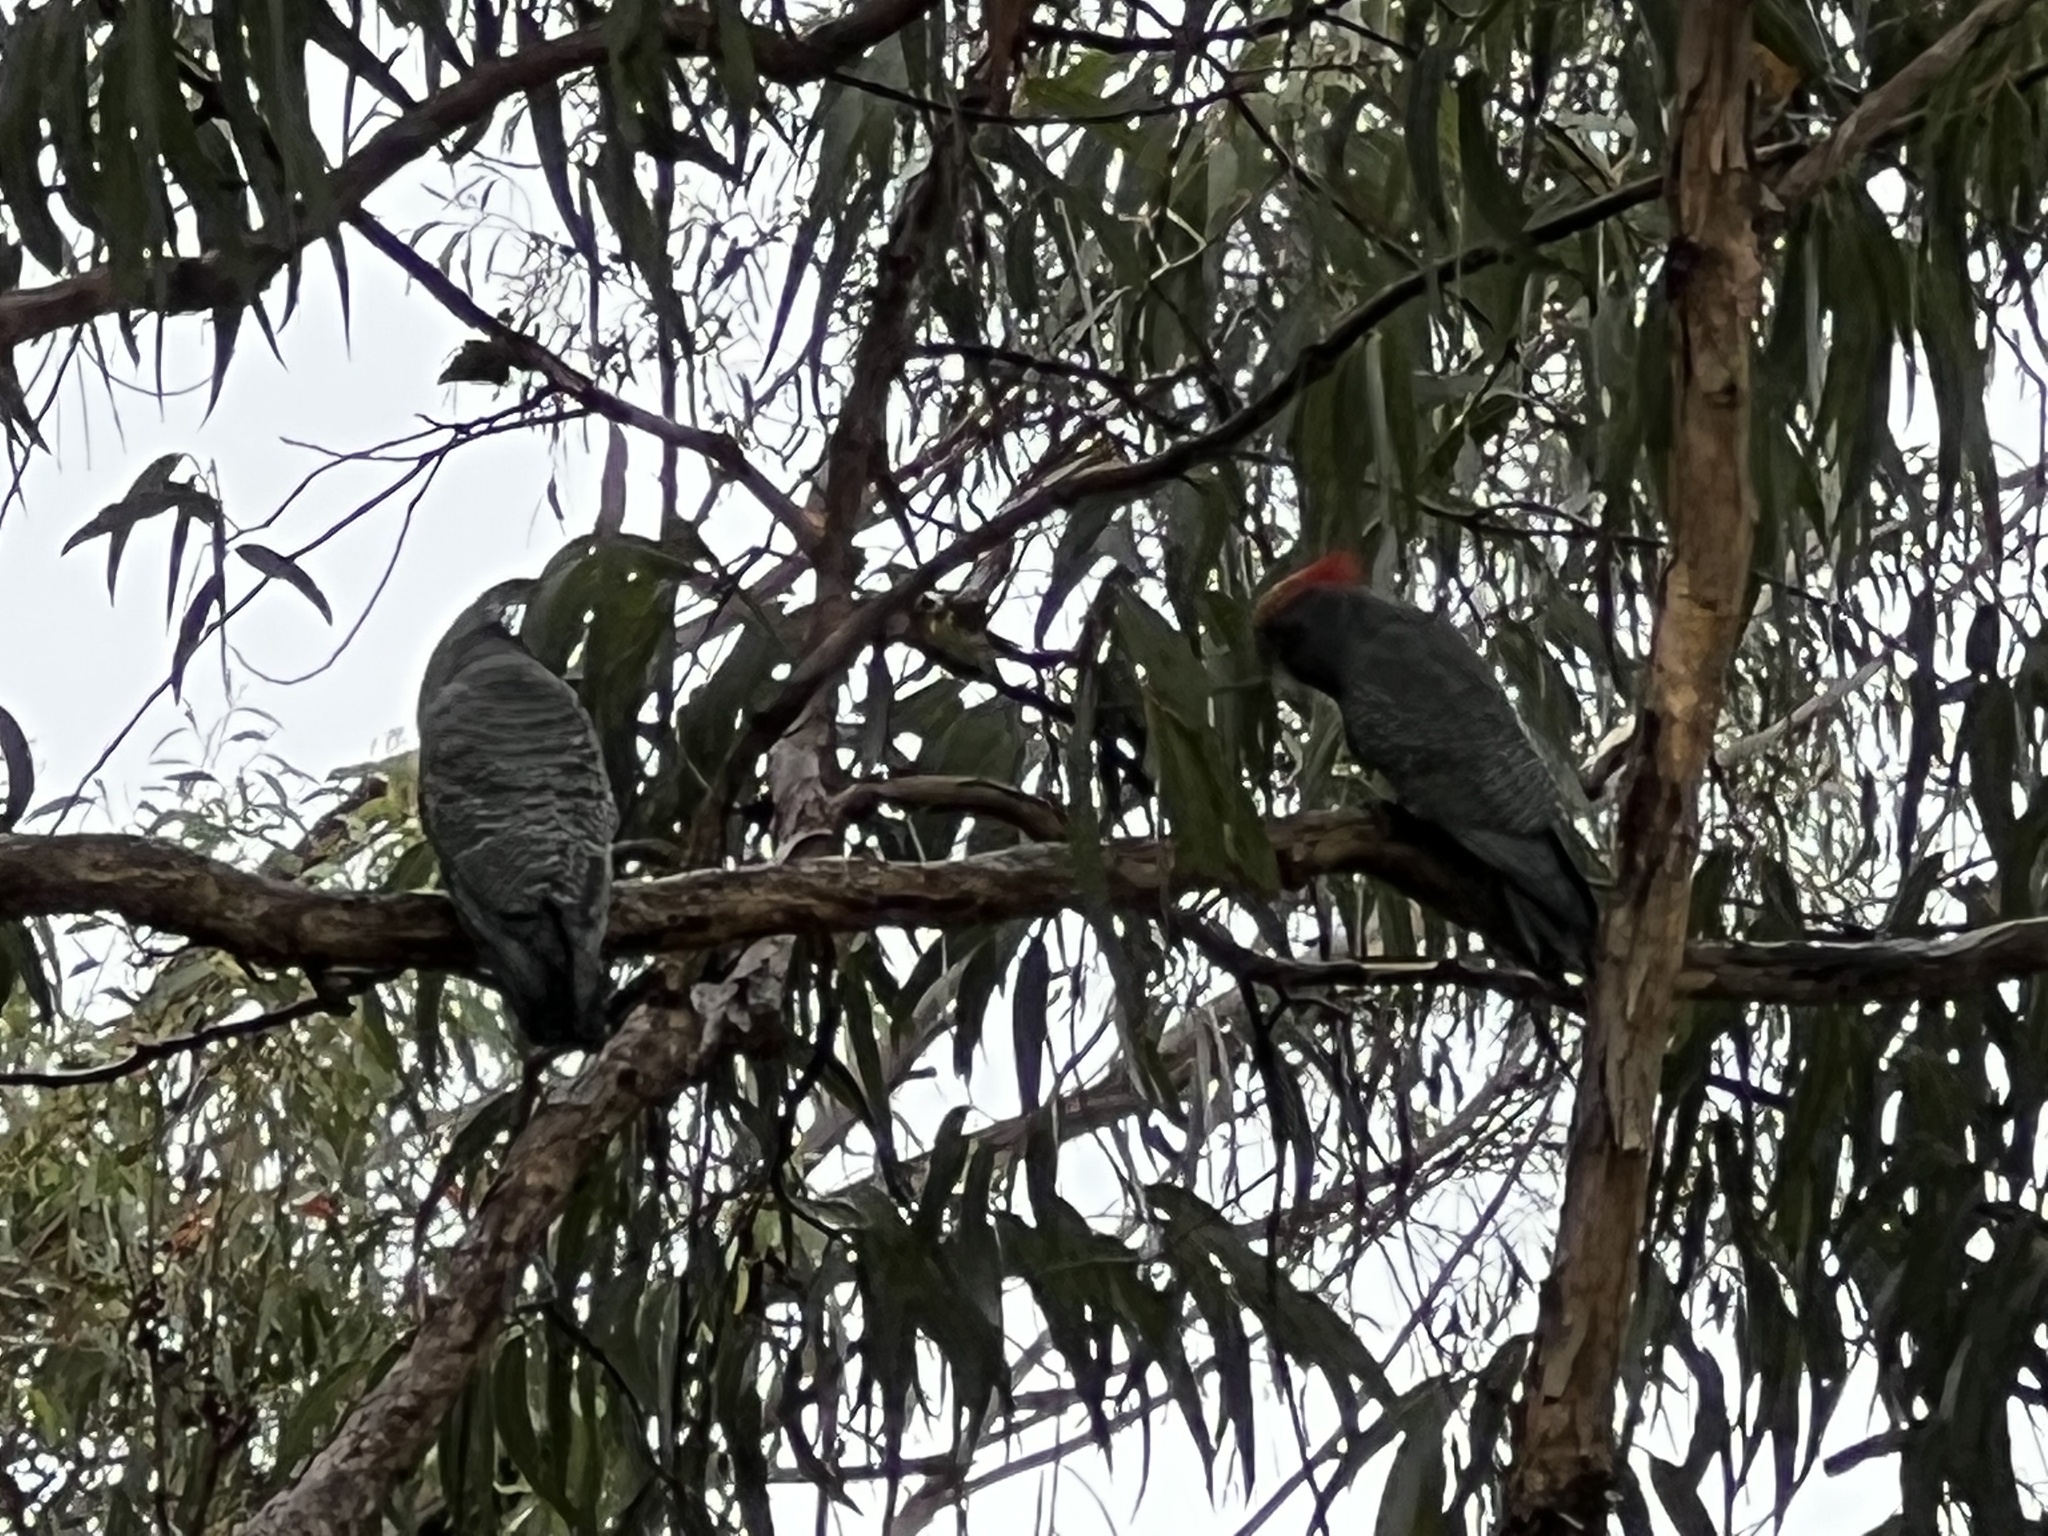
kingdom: Animalia
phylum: Chordata
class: Aves
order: Psittaciformes
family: Psittacidae
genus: Callocephalon
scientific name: Callocephalon fimbriatum
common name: Gang-gang cockatoo
